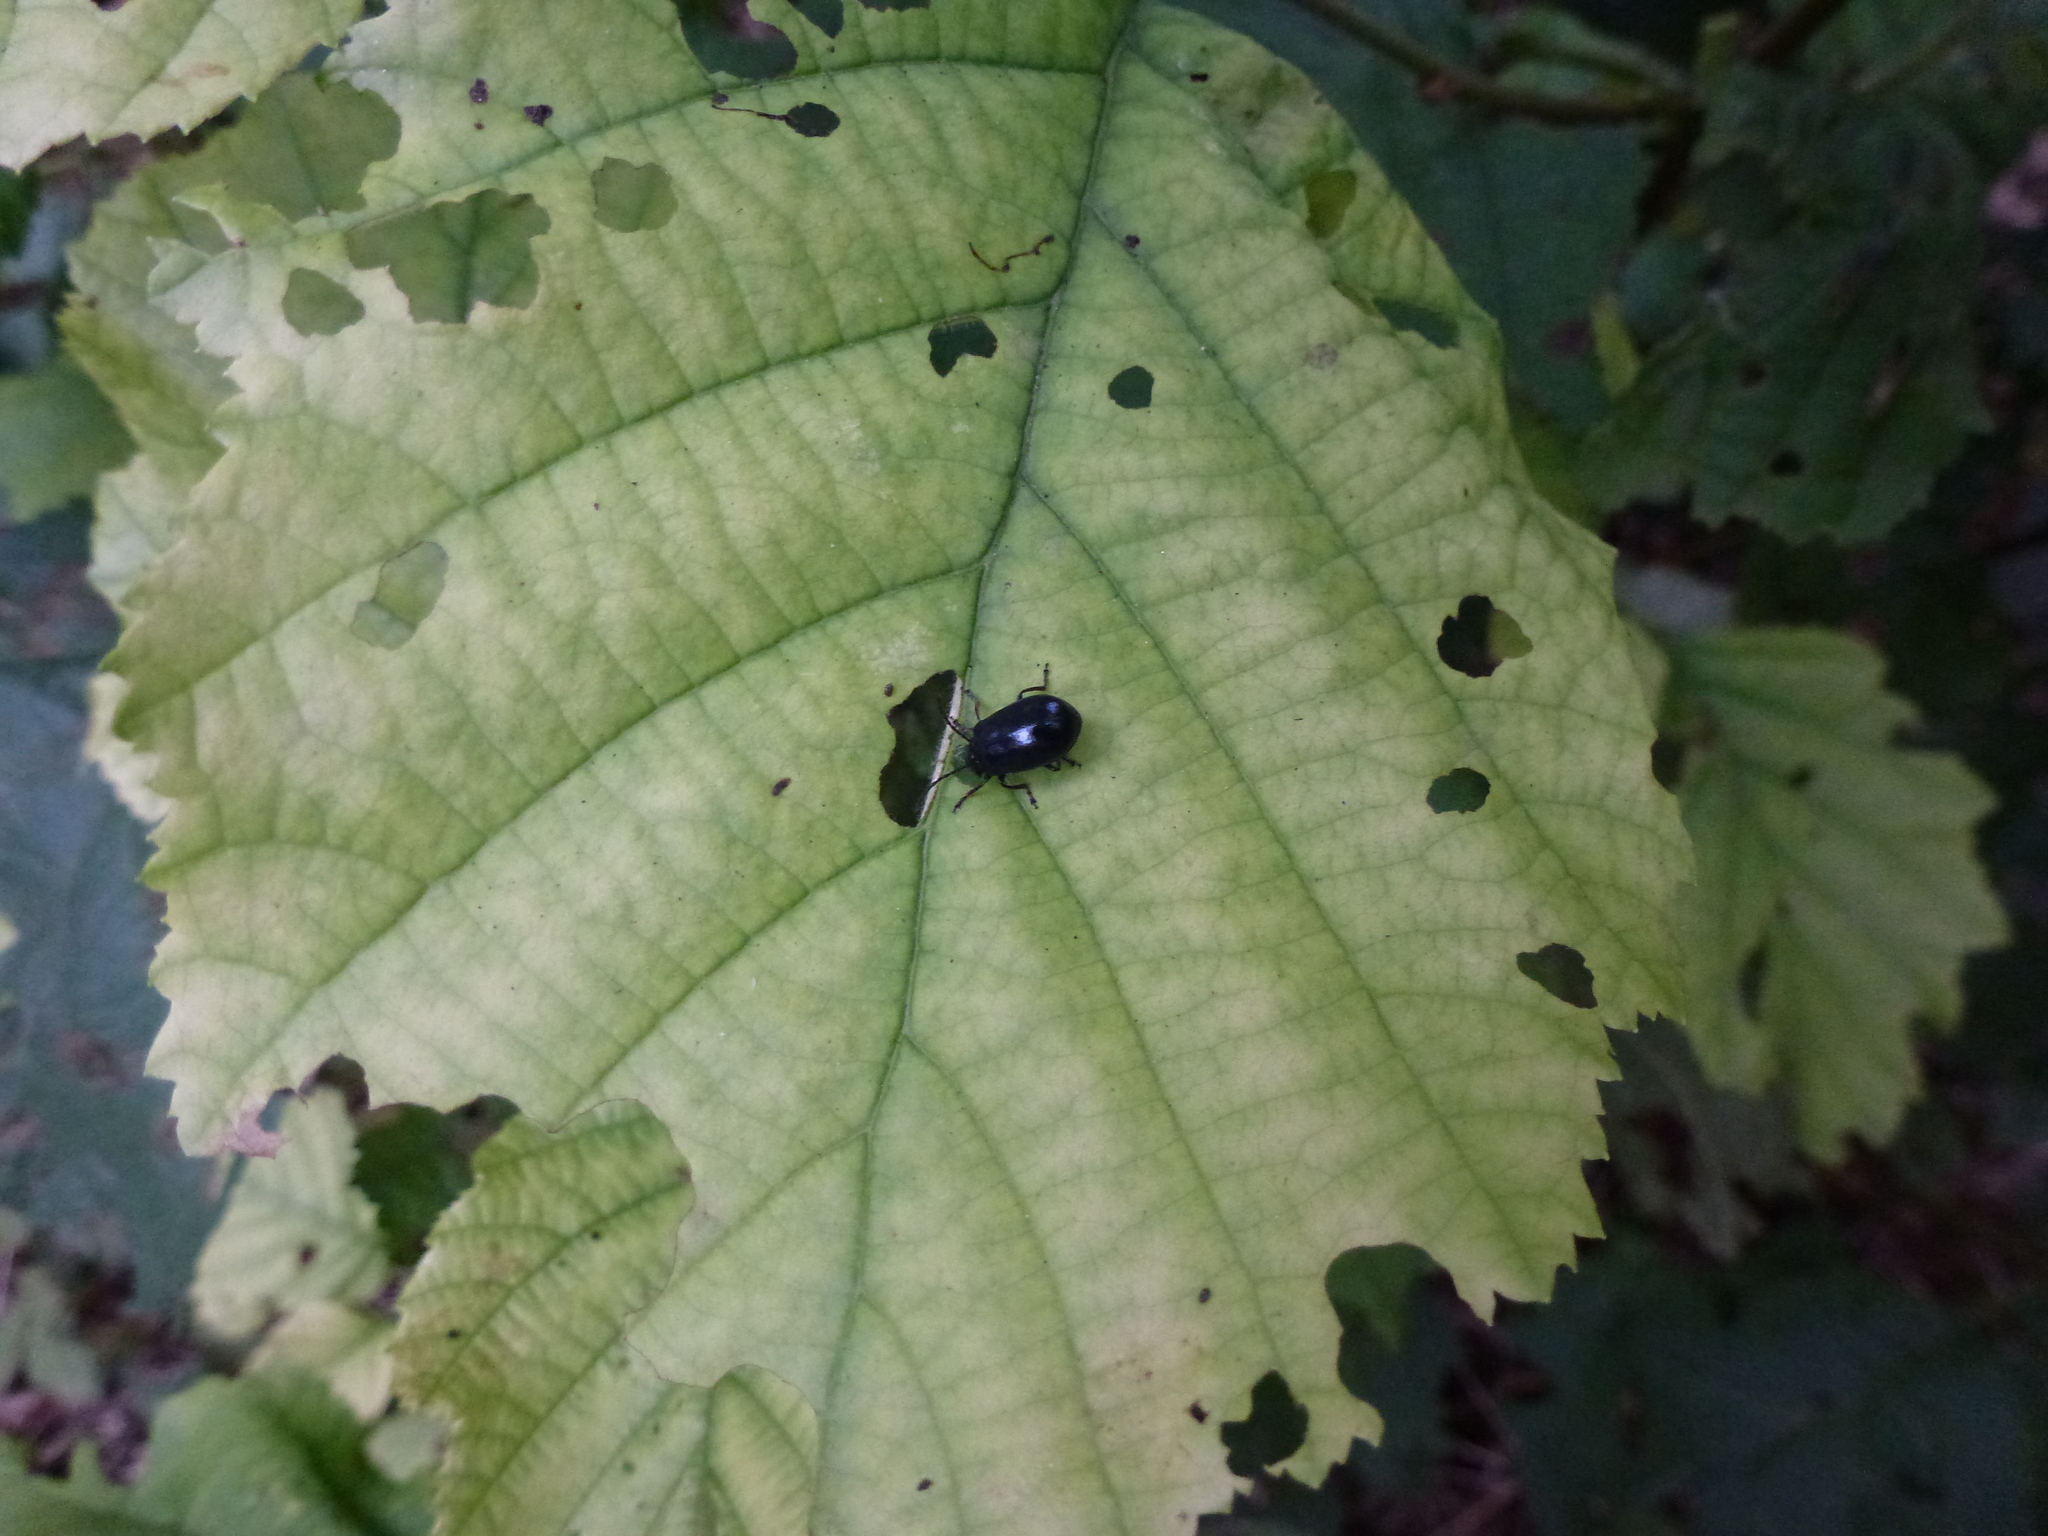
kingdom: Animalia
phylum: Arthropoda
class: Insecta
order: Coleoptera
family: Chrysomelidae
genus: Agelastica
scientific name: Agelastica alni
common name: Alder leaf beetle
